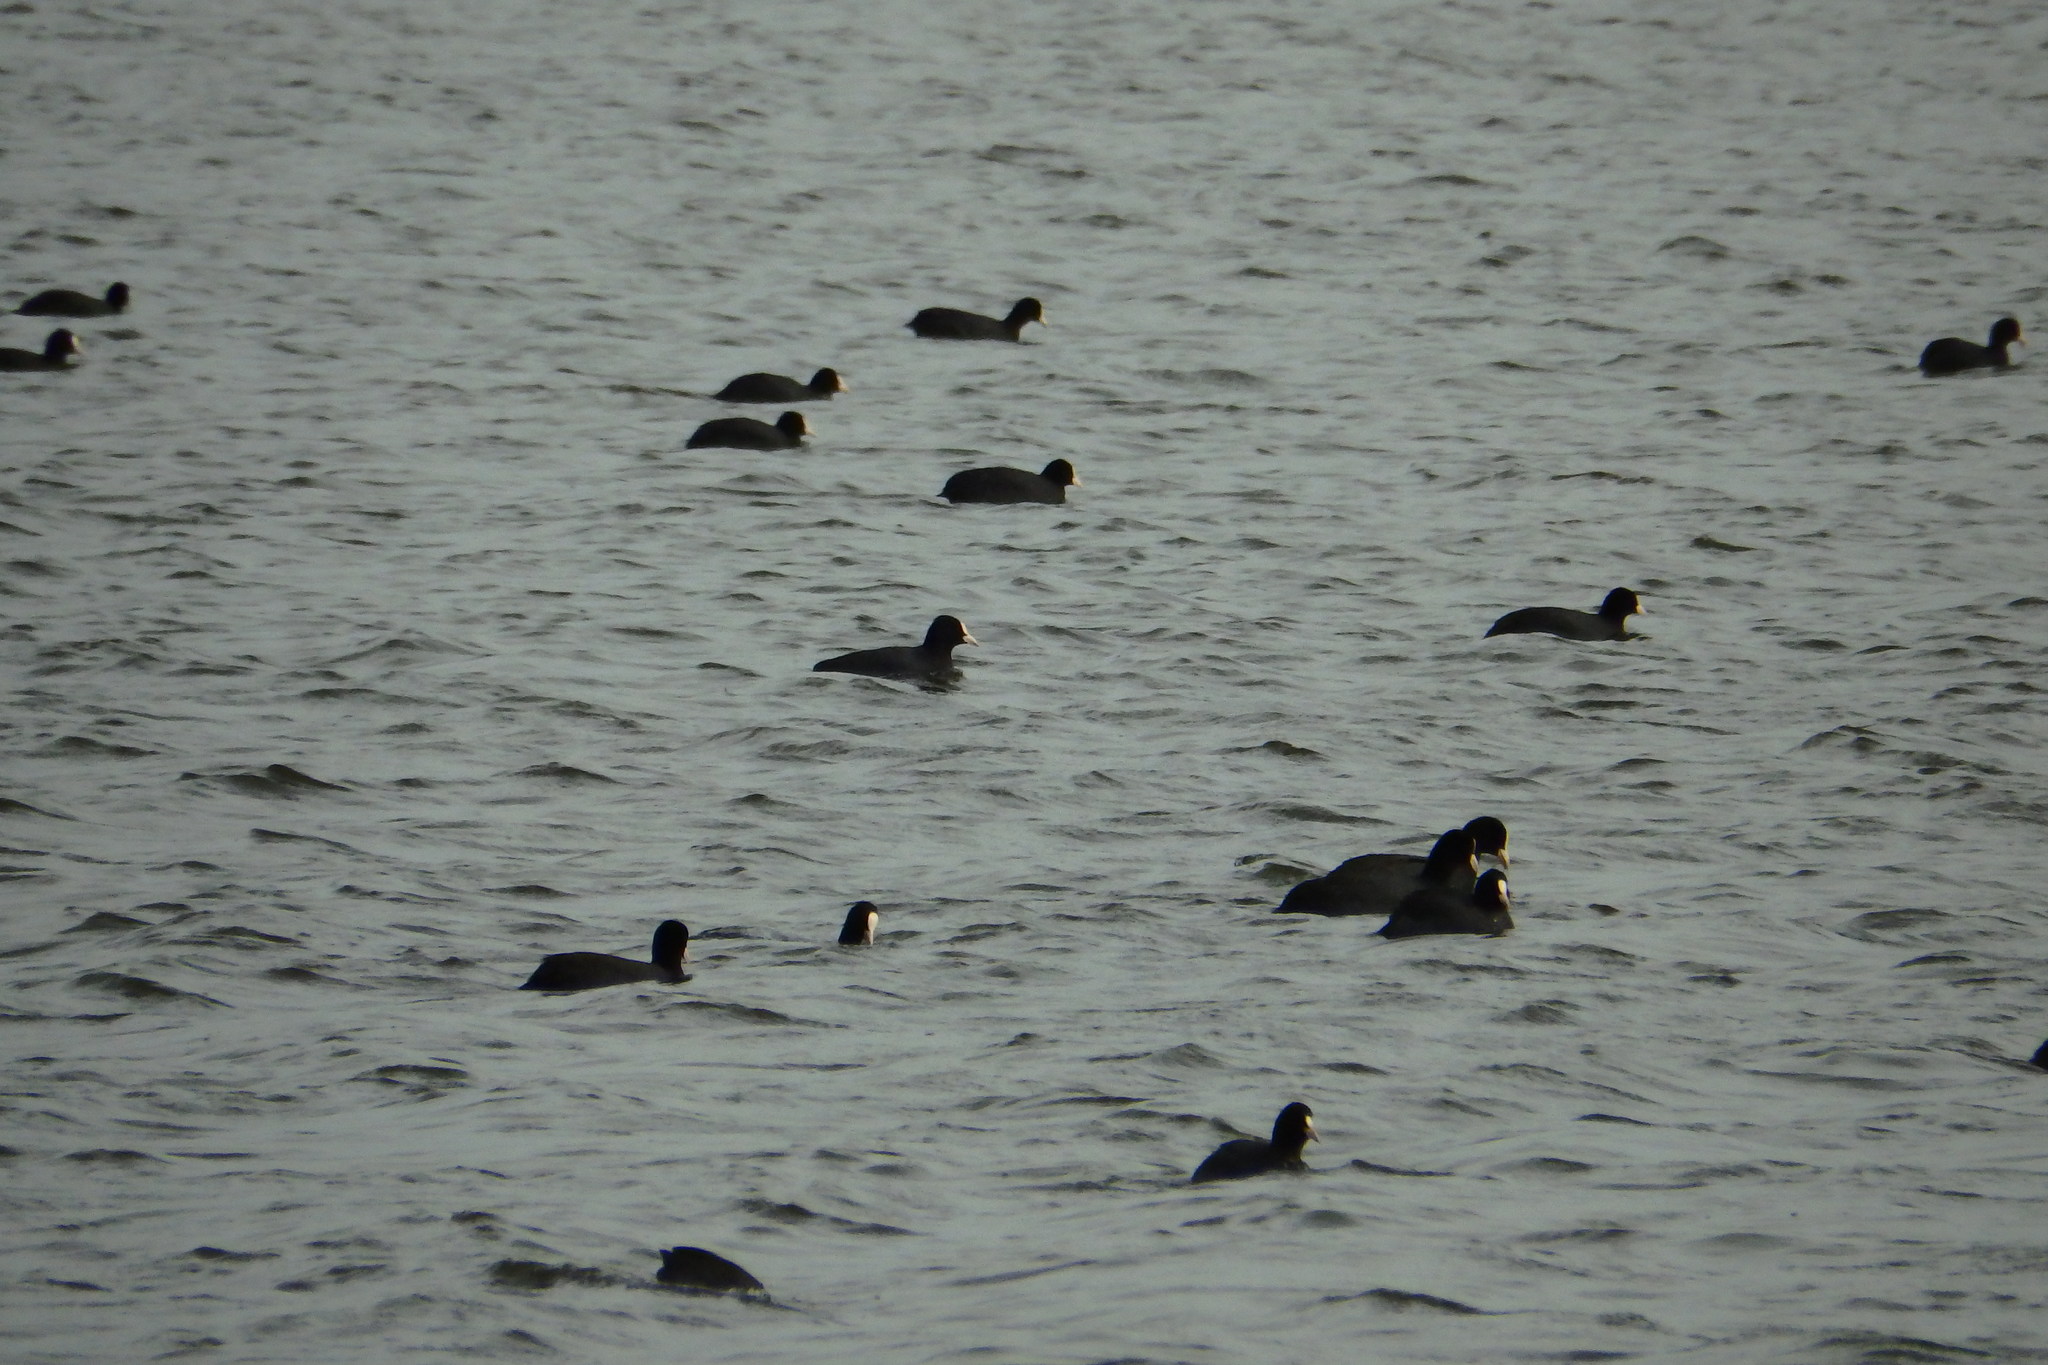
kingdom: Animalia
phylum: Chordata
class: Aves
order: Gruiformes
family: Rallidae
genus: Fulica
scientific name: Fulica atra
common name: Eurasian coot
